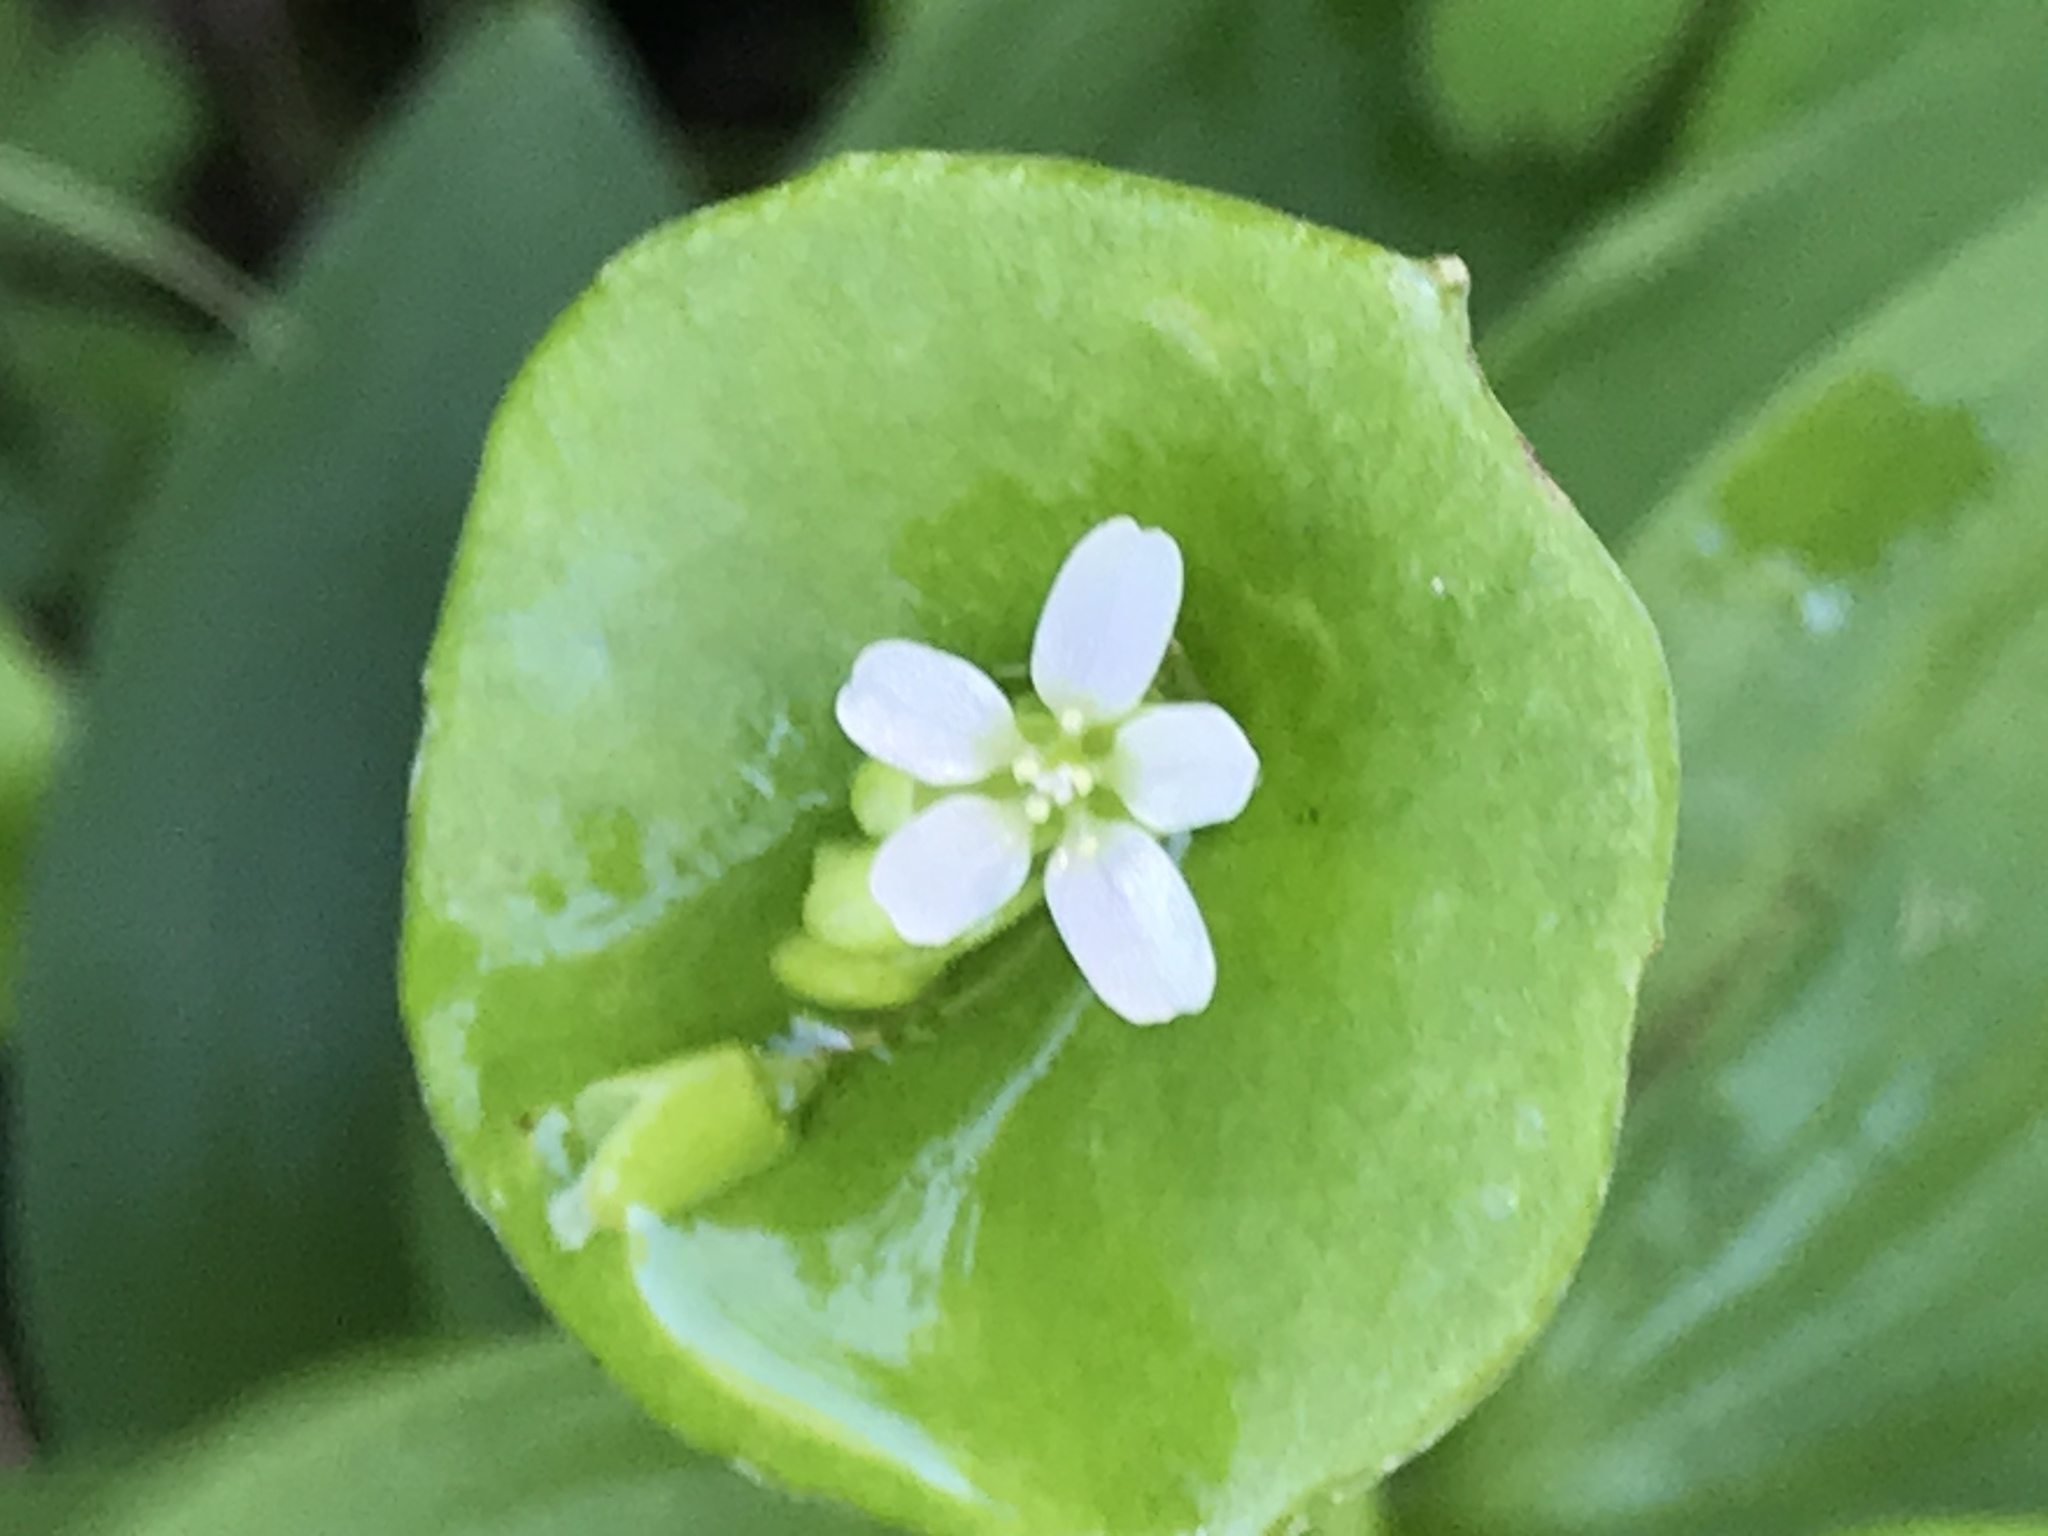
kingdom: Plantae
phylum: Tracheophyta
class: Magnoliopsida
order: Caryophyllales
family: Montiaceae
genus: Claytonia
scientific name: Claytonia perfoliata
